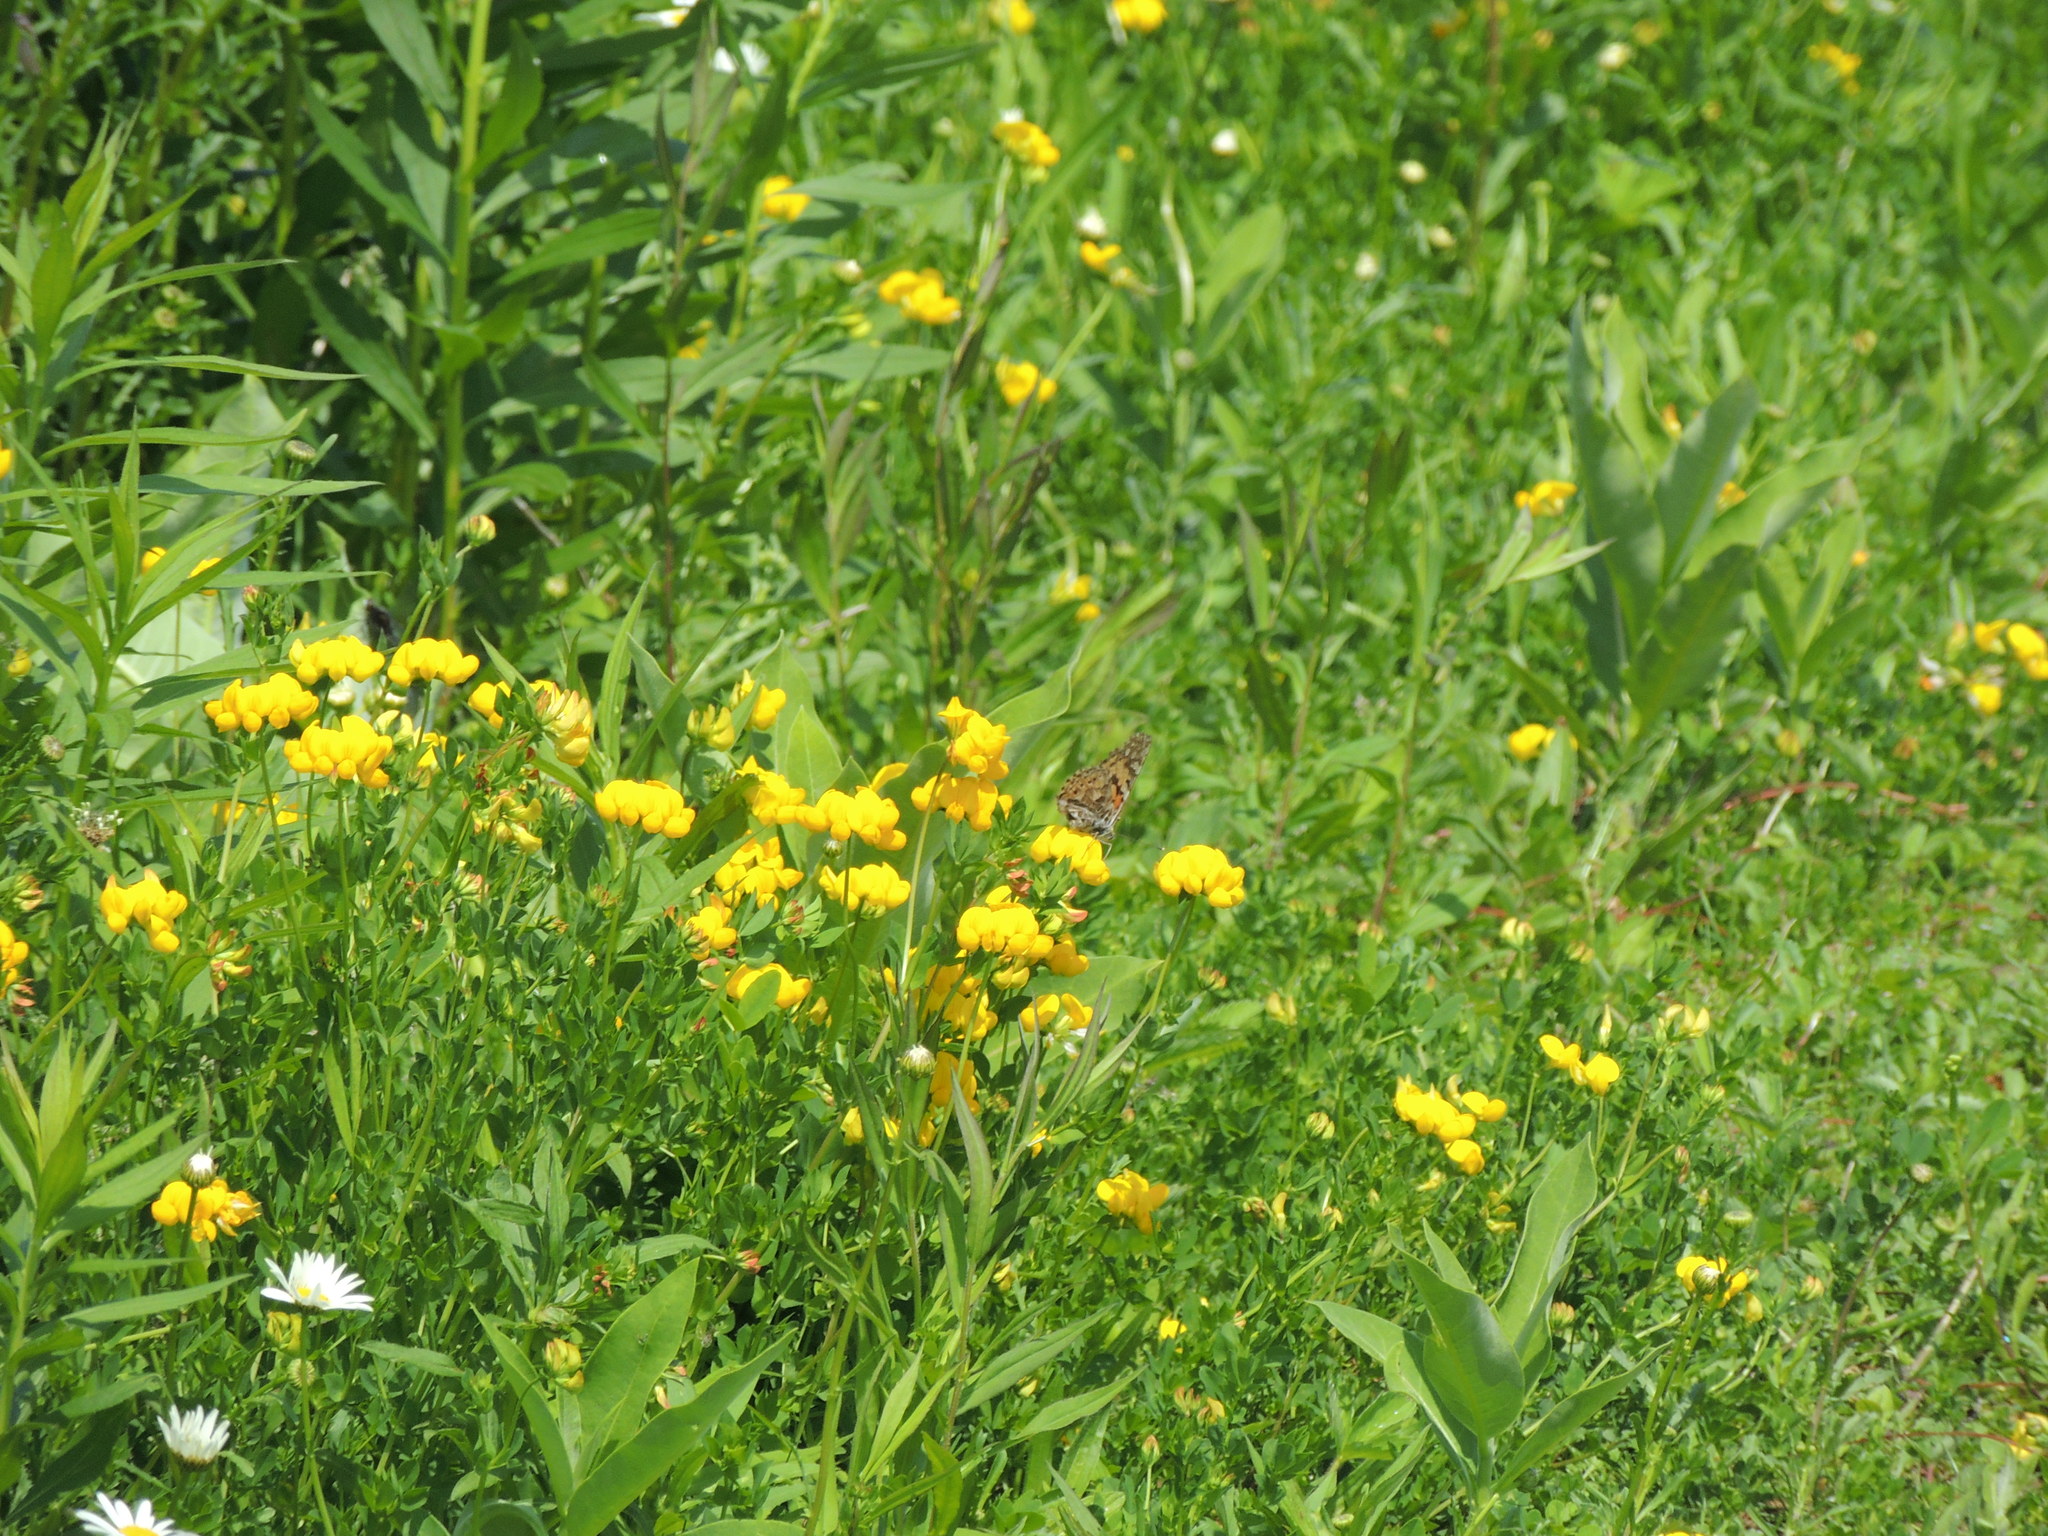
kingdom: Animalia
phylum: Arthropoda
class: Insecta
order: Lepidoptera
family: Nymphalidae
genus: Vanessa
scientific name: Vanessa cardui
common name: Painted lady
